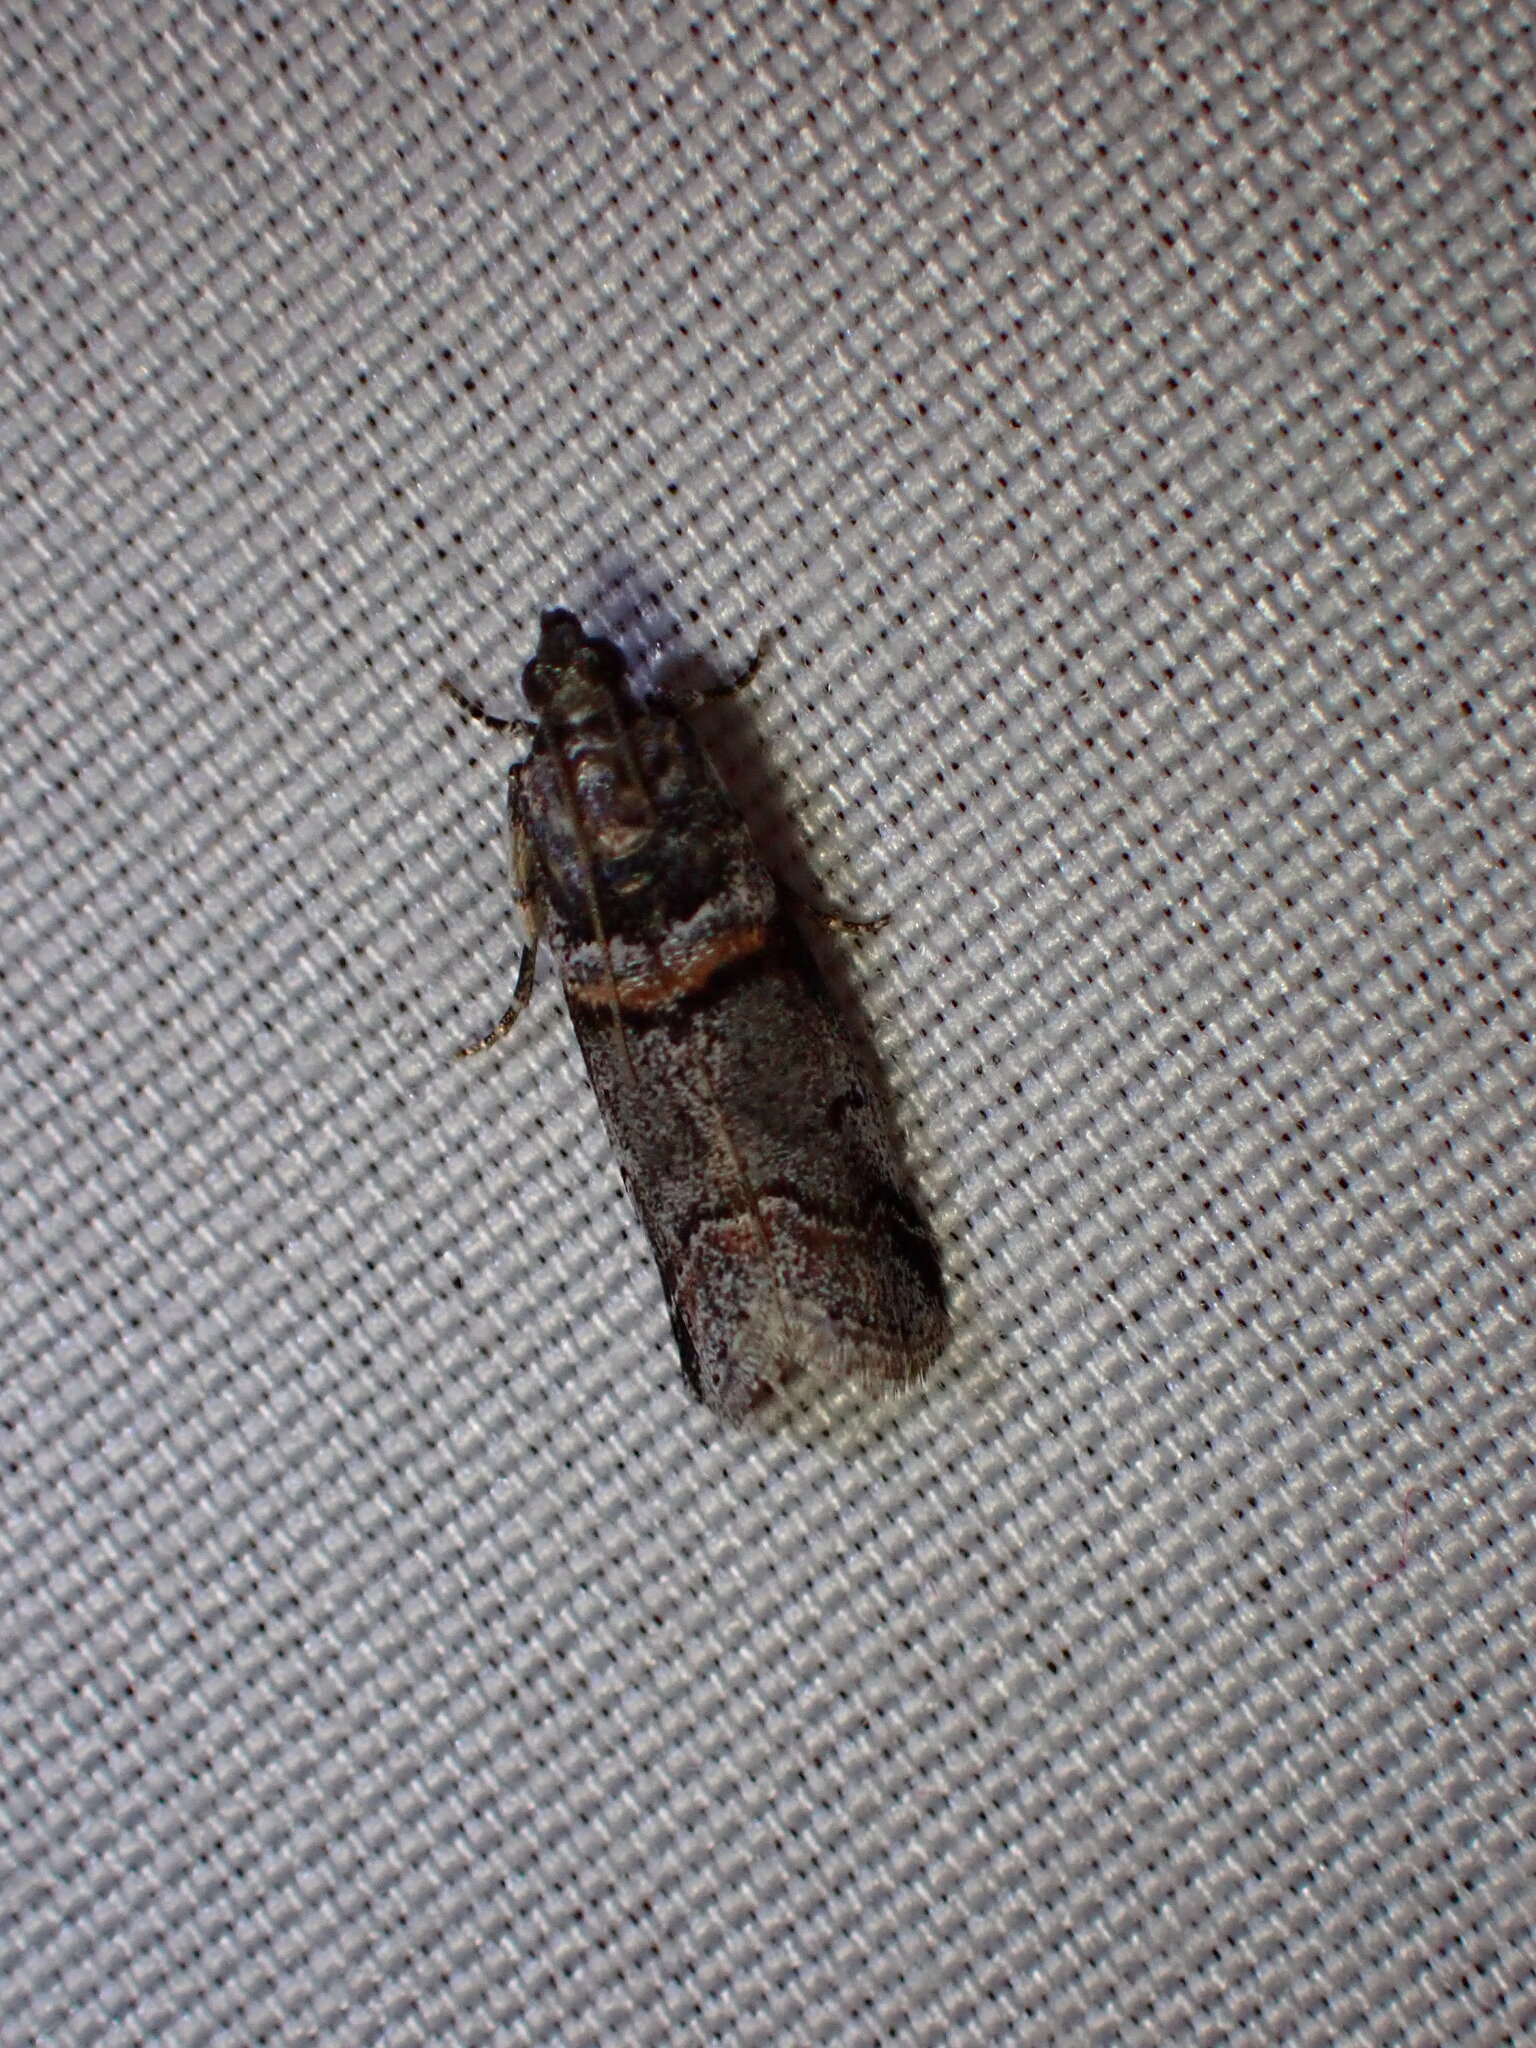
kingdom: Animalia
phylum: Arthropoda
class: Insecta
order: Lepidoptera
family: Pyralidae
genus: Acrobasis
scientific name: Acrobasis tricolorella
